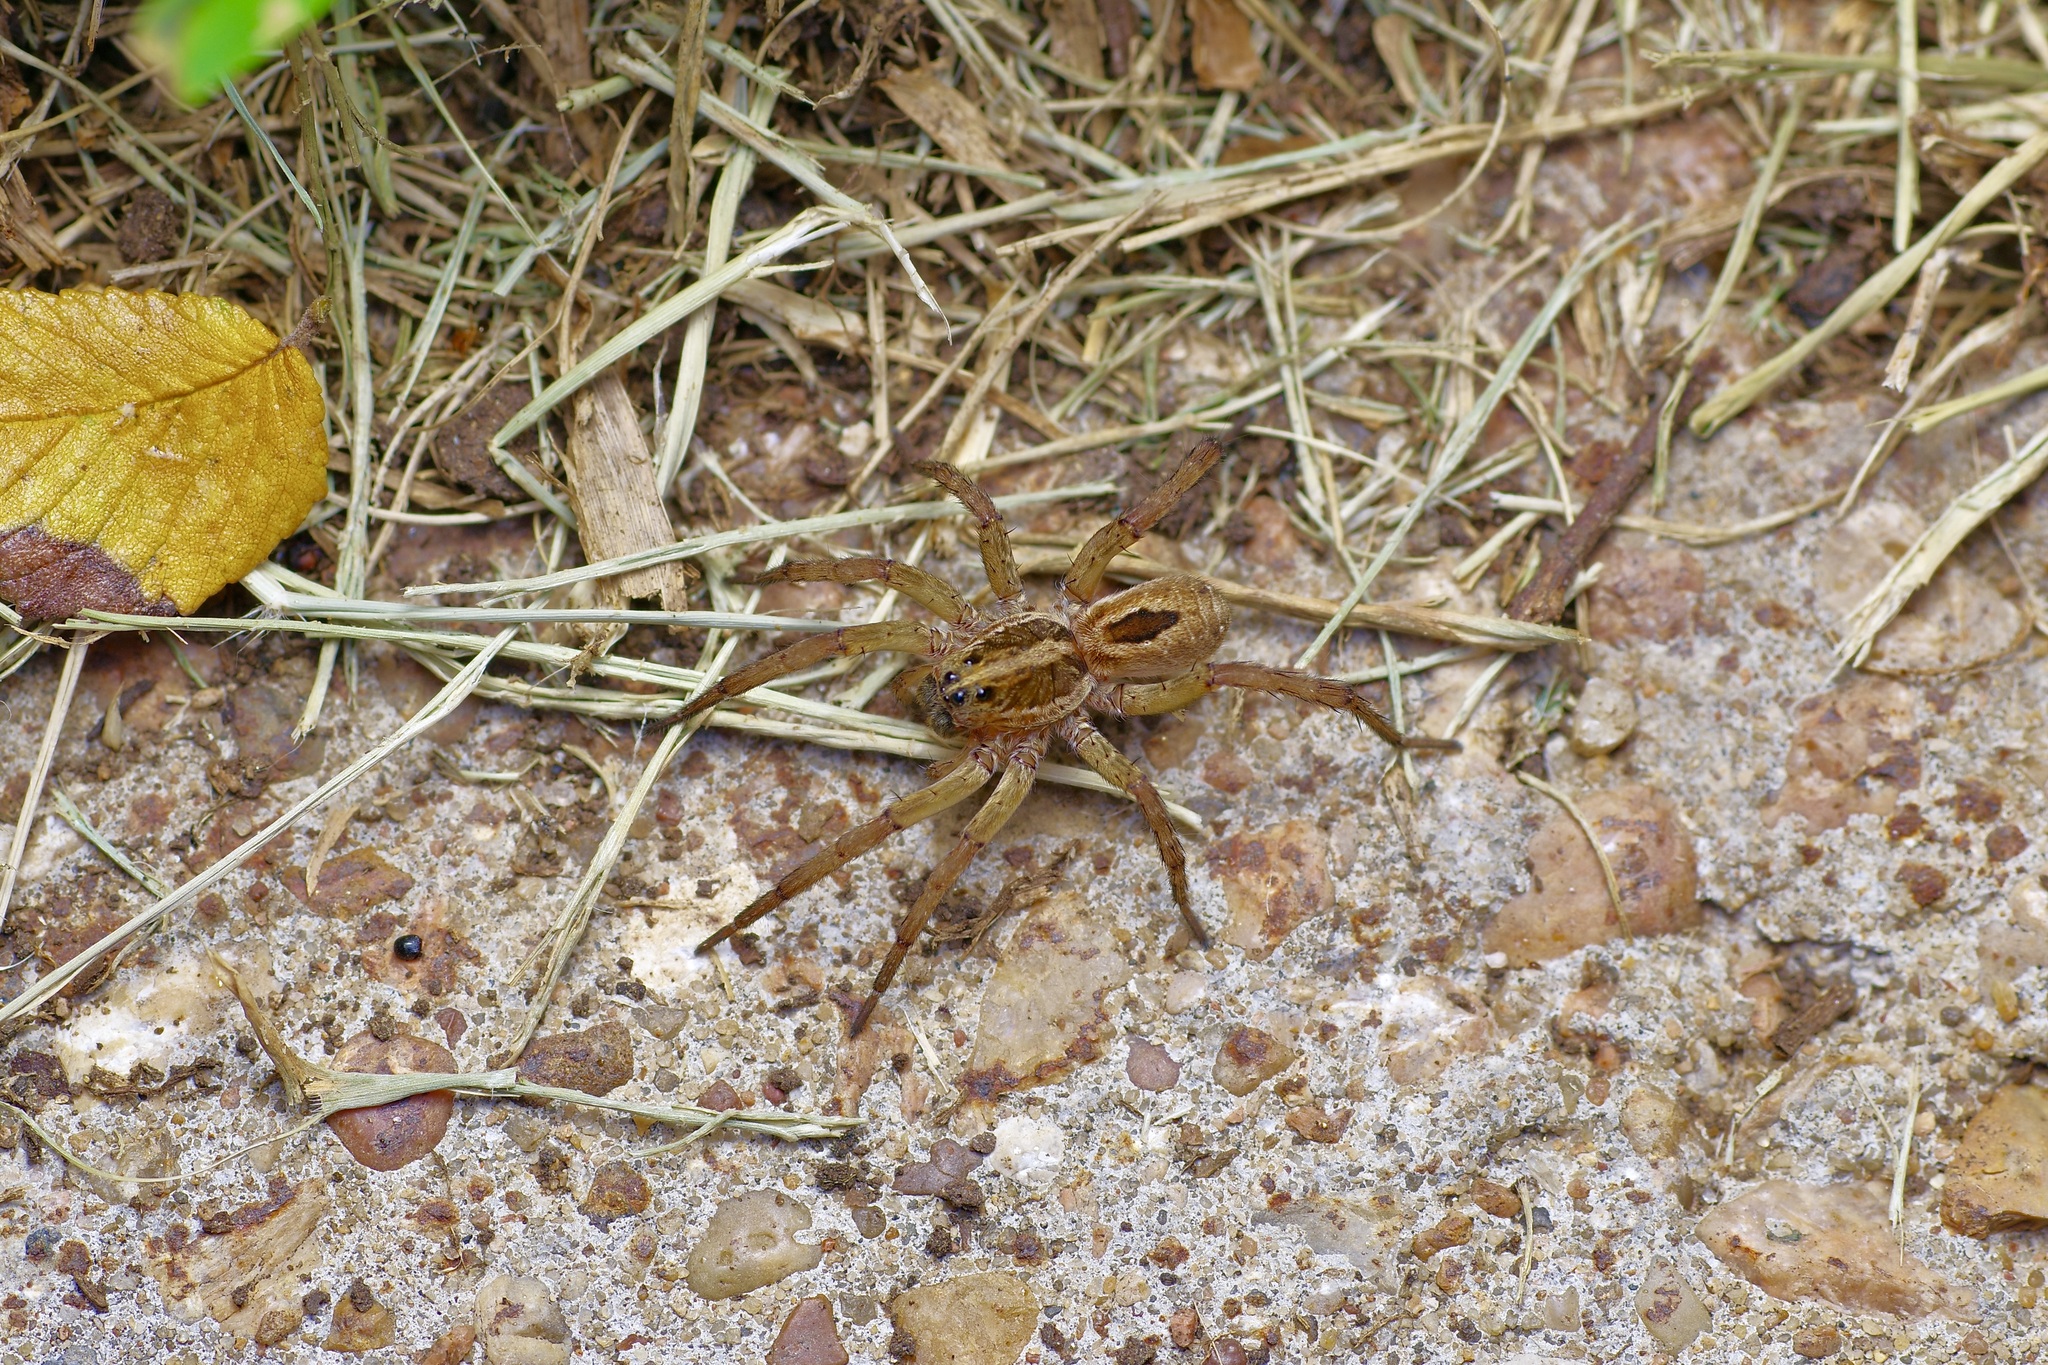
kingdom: Animalia
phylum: Arthropoda
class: Arachnida
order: Araneae
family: Lycosidae
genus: Tigrosa
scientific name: Tigrosa annexa
